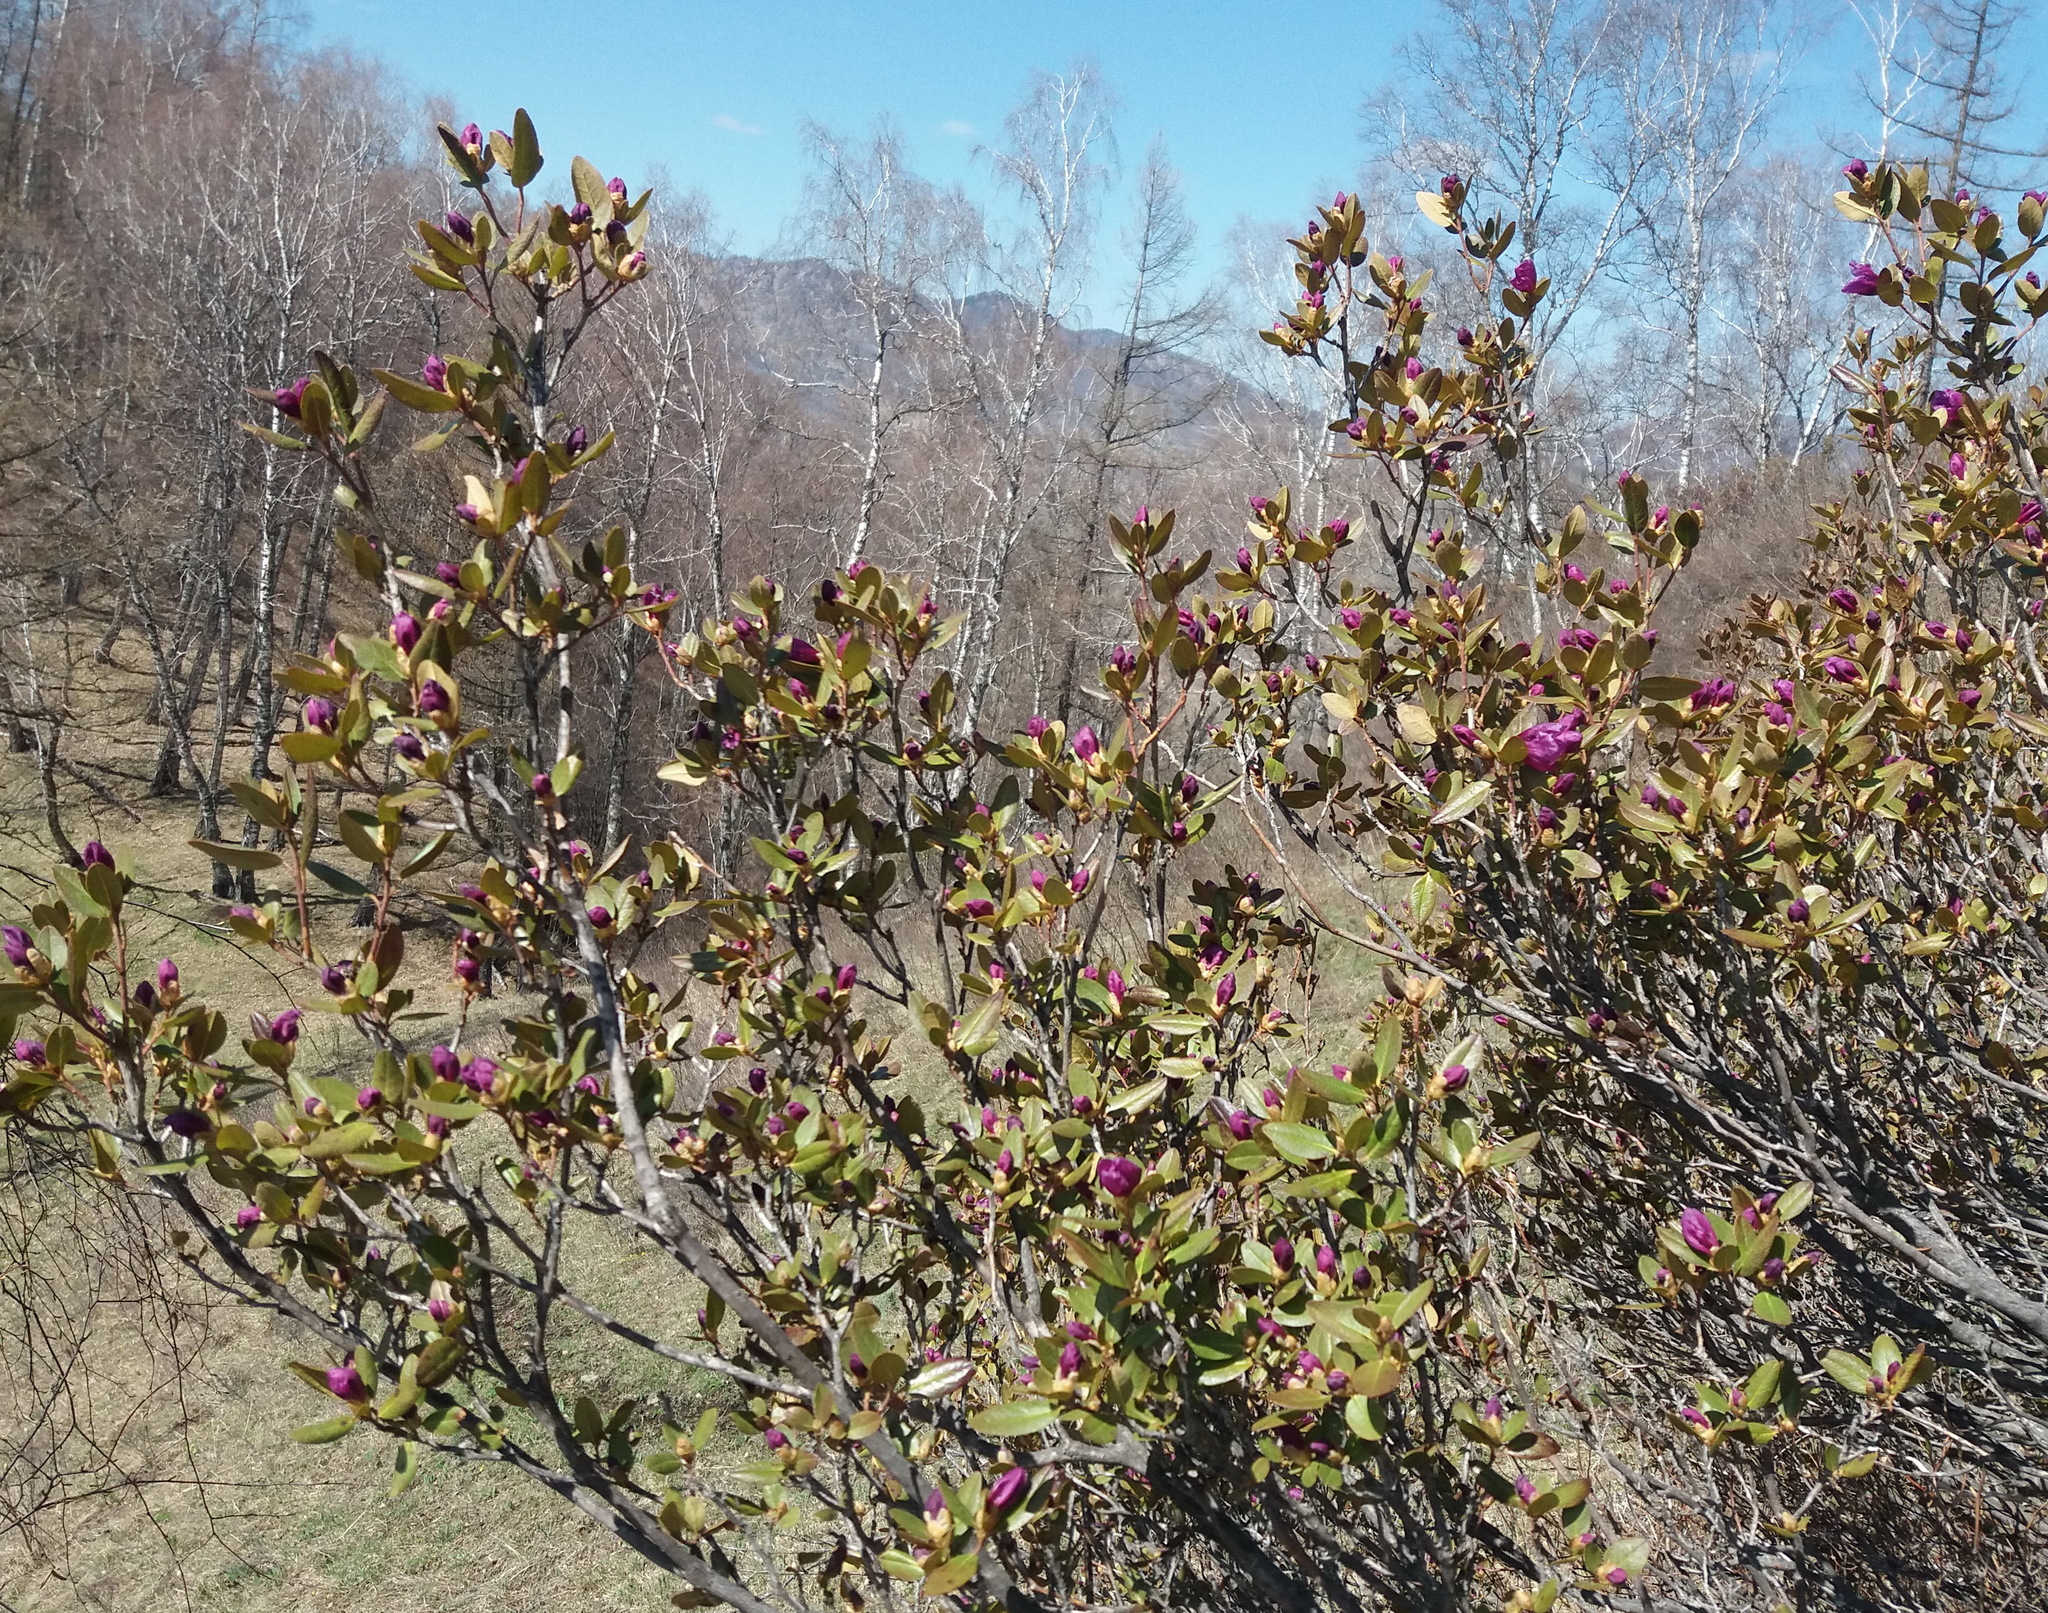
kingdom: Plantae
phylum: Tracheophyta
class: Magnoliopsida
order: Ericales
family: Ericaceae
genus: Rhododendron
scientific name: Rhododendron dauricum
